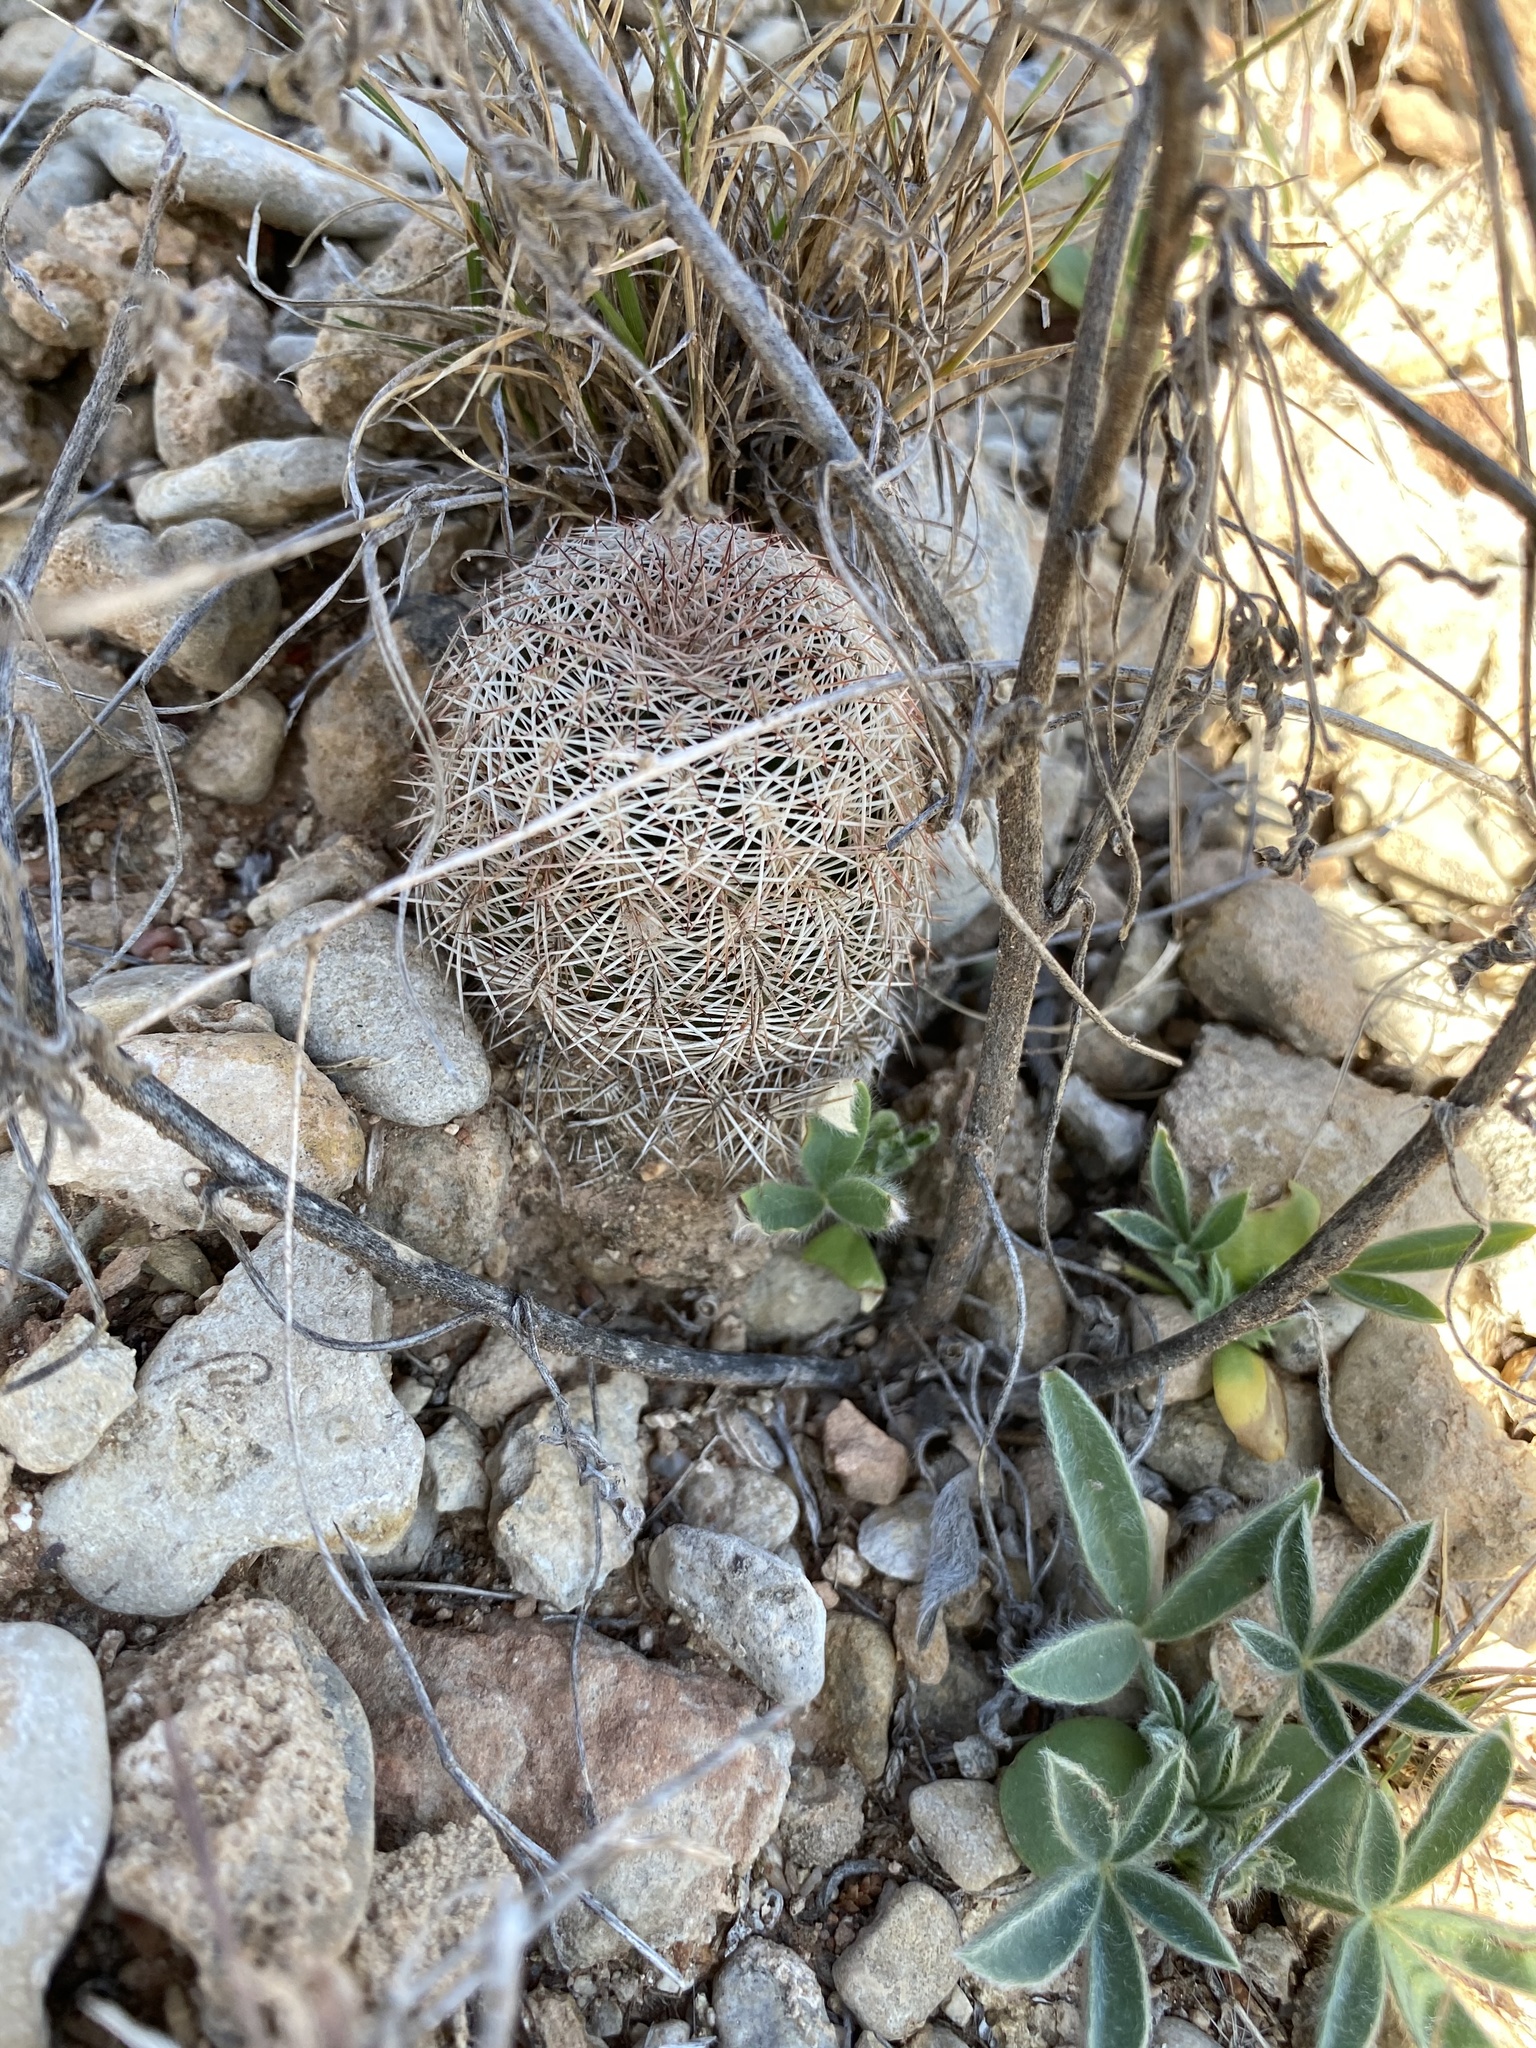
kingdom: Plantae
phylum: Tracheophyta
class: Magnoliopsida
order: Caryophyllales
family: Cactaceae
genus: Echinocereus
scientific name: Echinocereus reichenbachii
